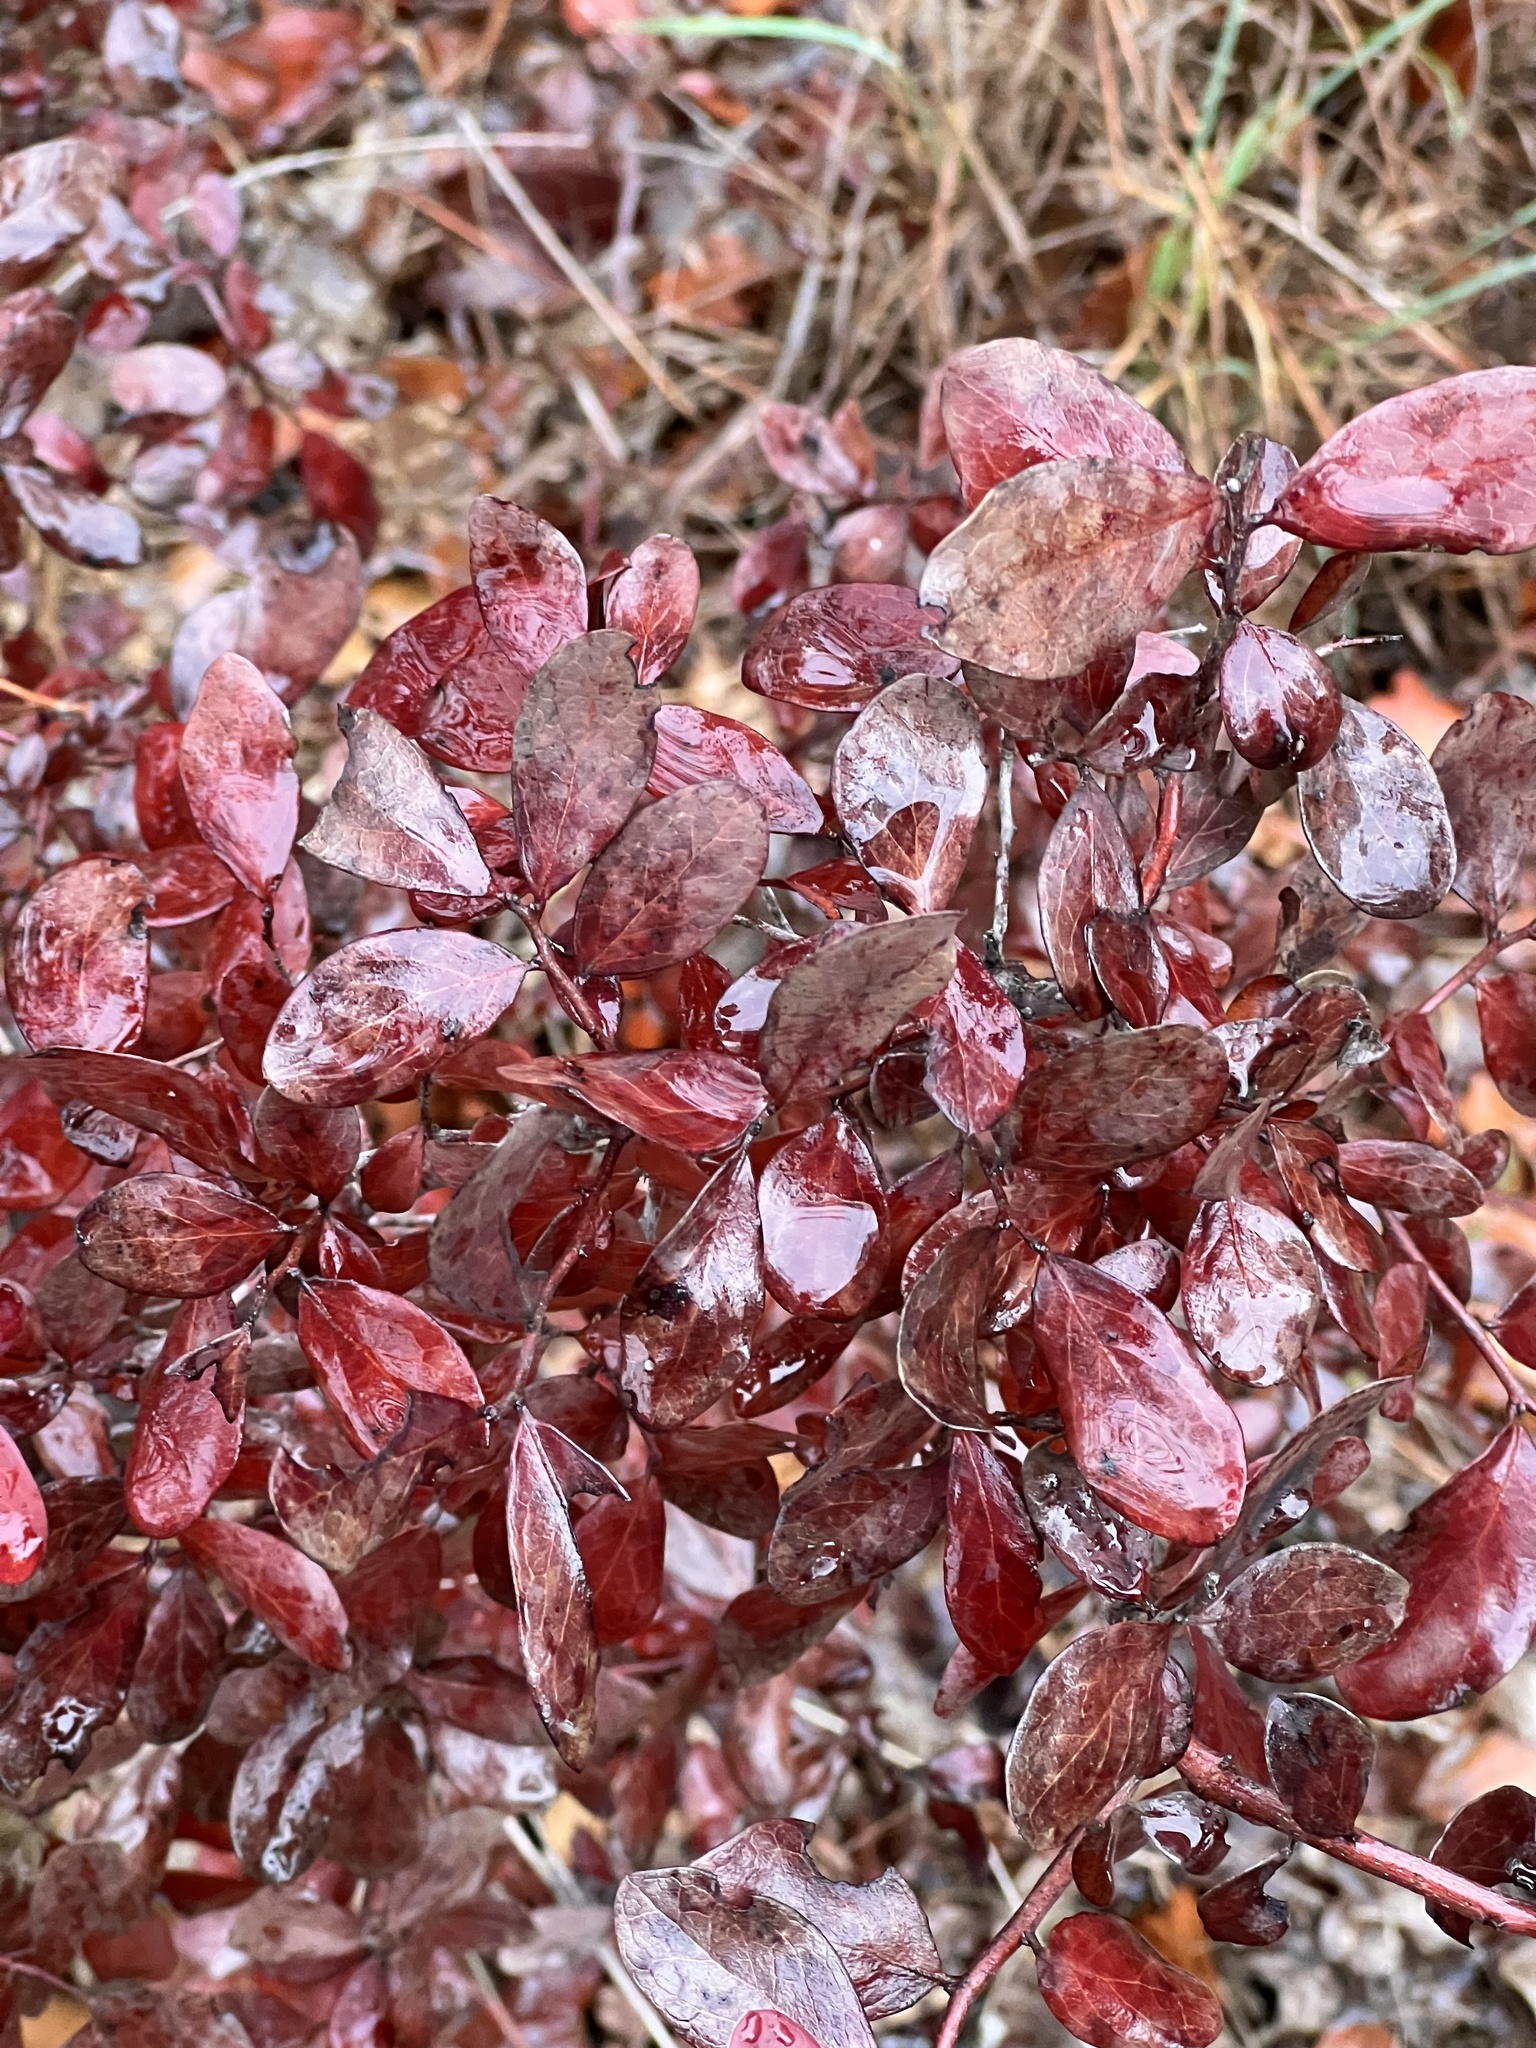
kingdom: Plantae
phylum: Tracheophyta
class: Magnoliopsida
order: Ericales
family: Ericaceae
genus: Vaccinium
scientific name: Vaccinium arboreum
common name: Farkleberry
